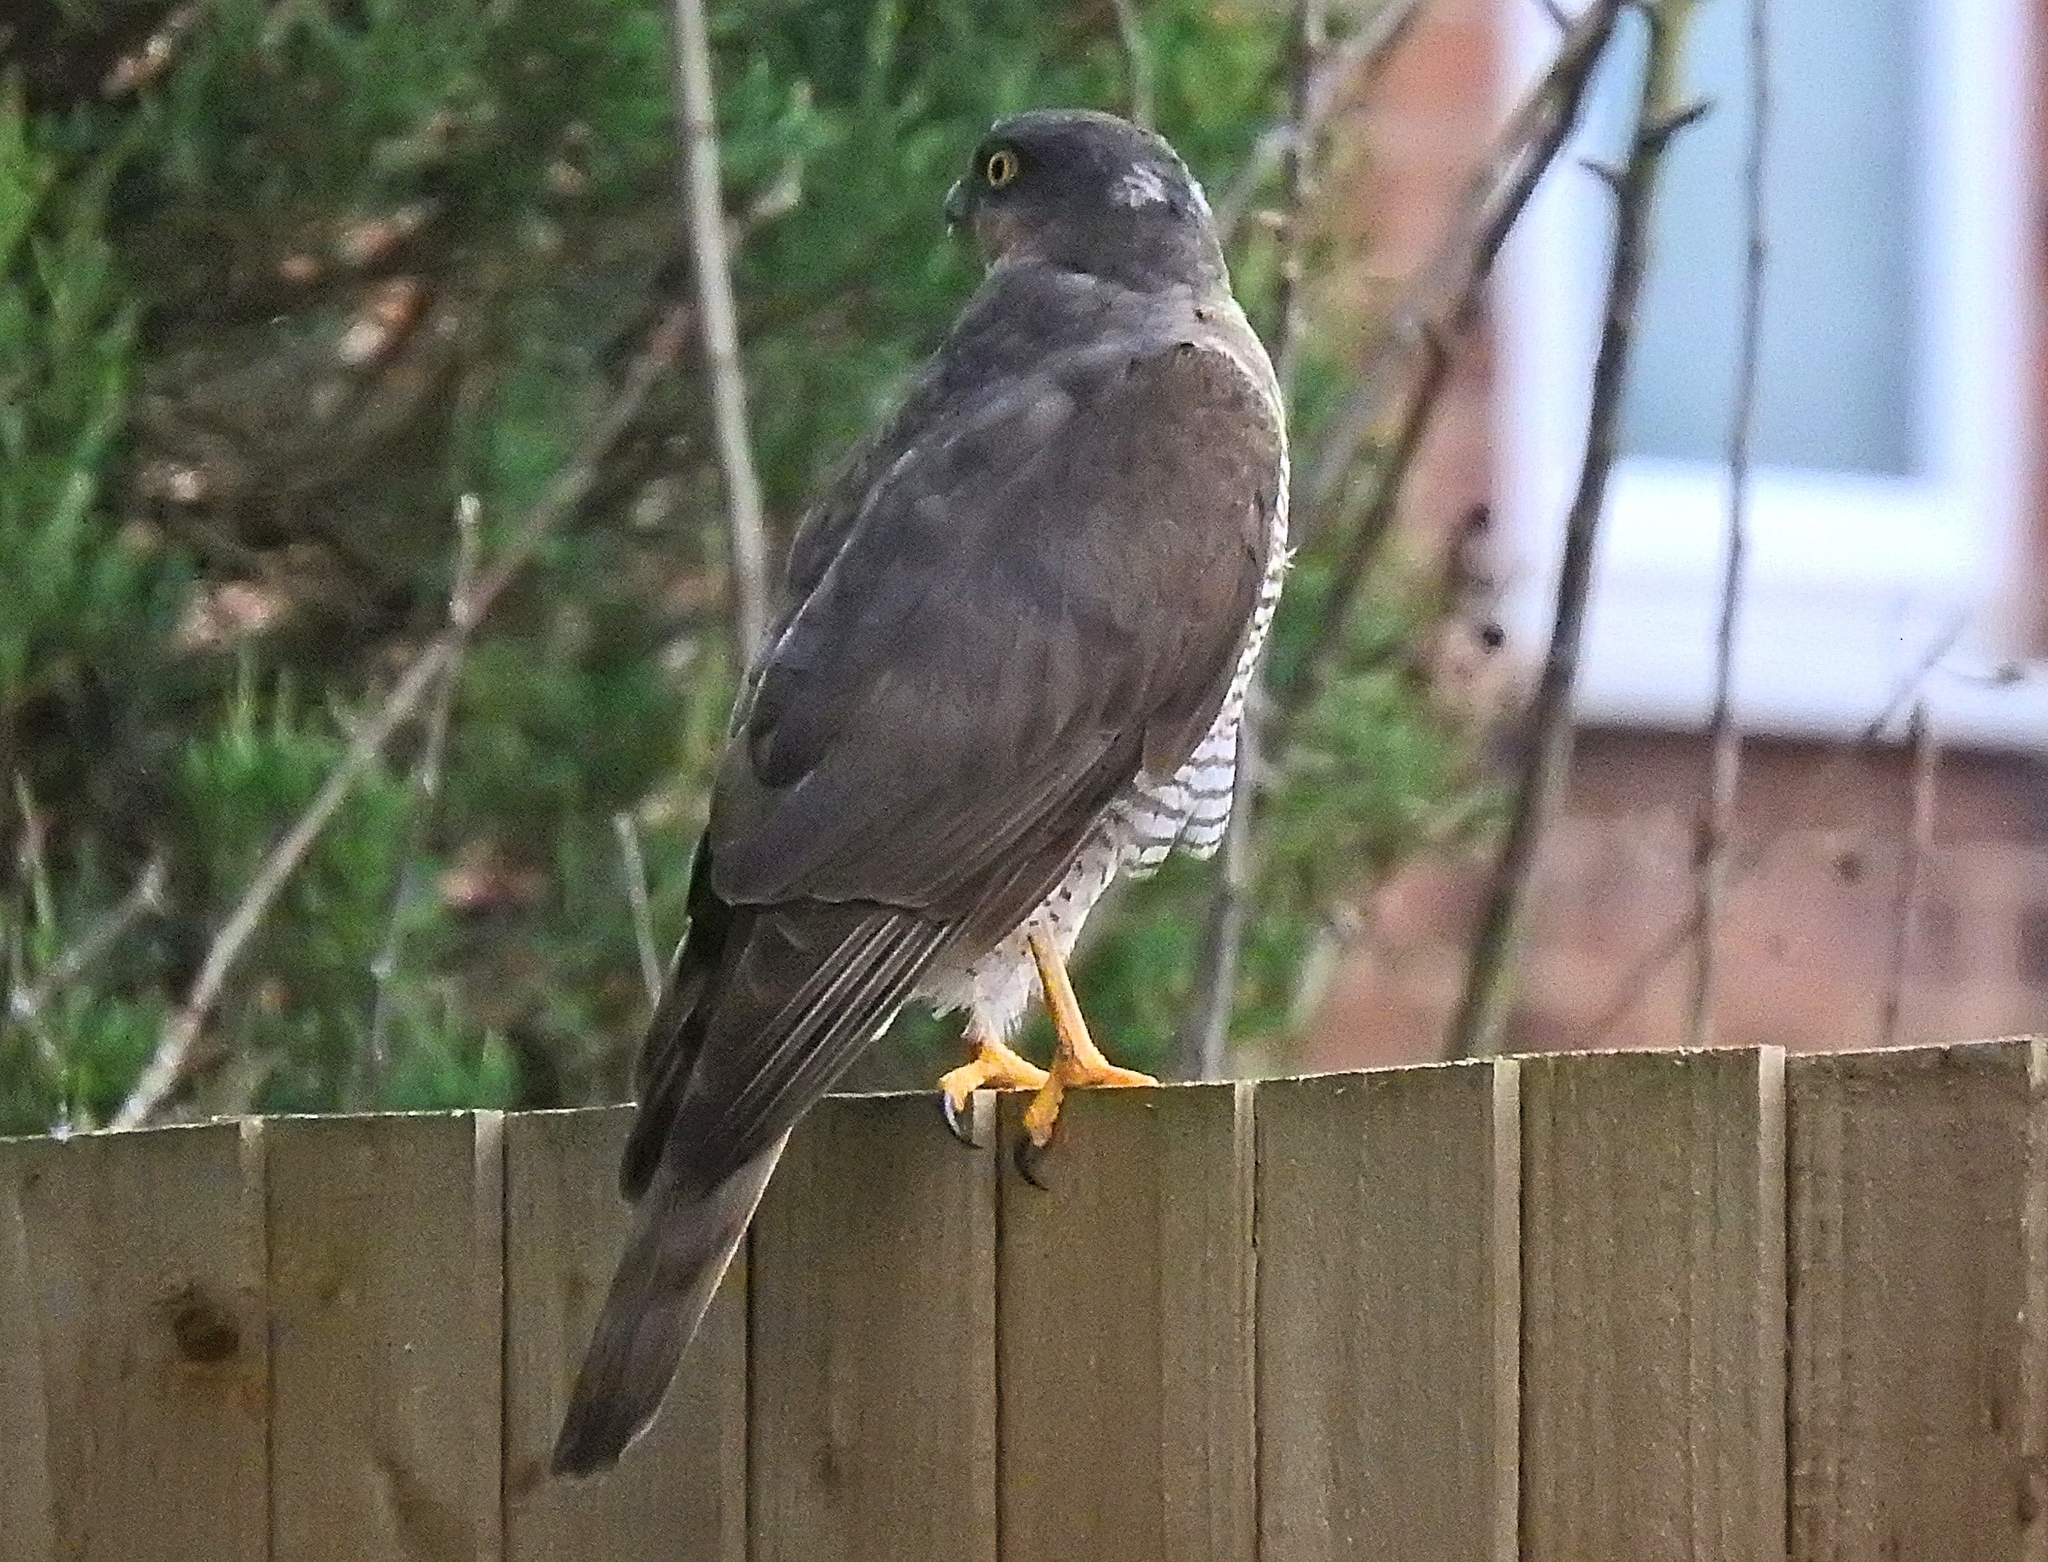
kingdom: Animalia
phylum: Chordata
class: Aves
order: Accipitriformes
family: Accipitridae
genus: Accipiter
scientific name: Accipiter nisus
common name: Eurasian sparrowhawk
